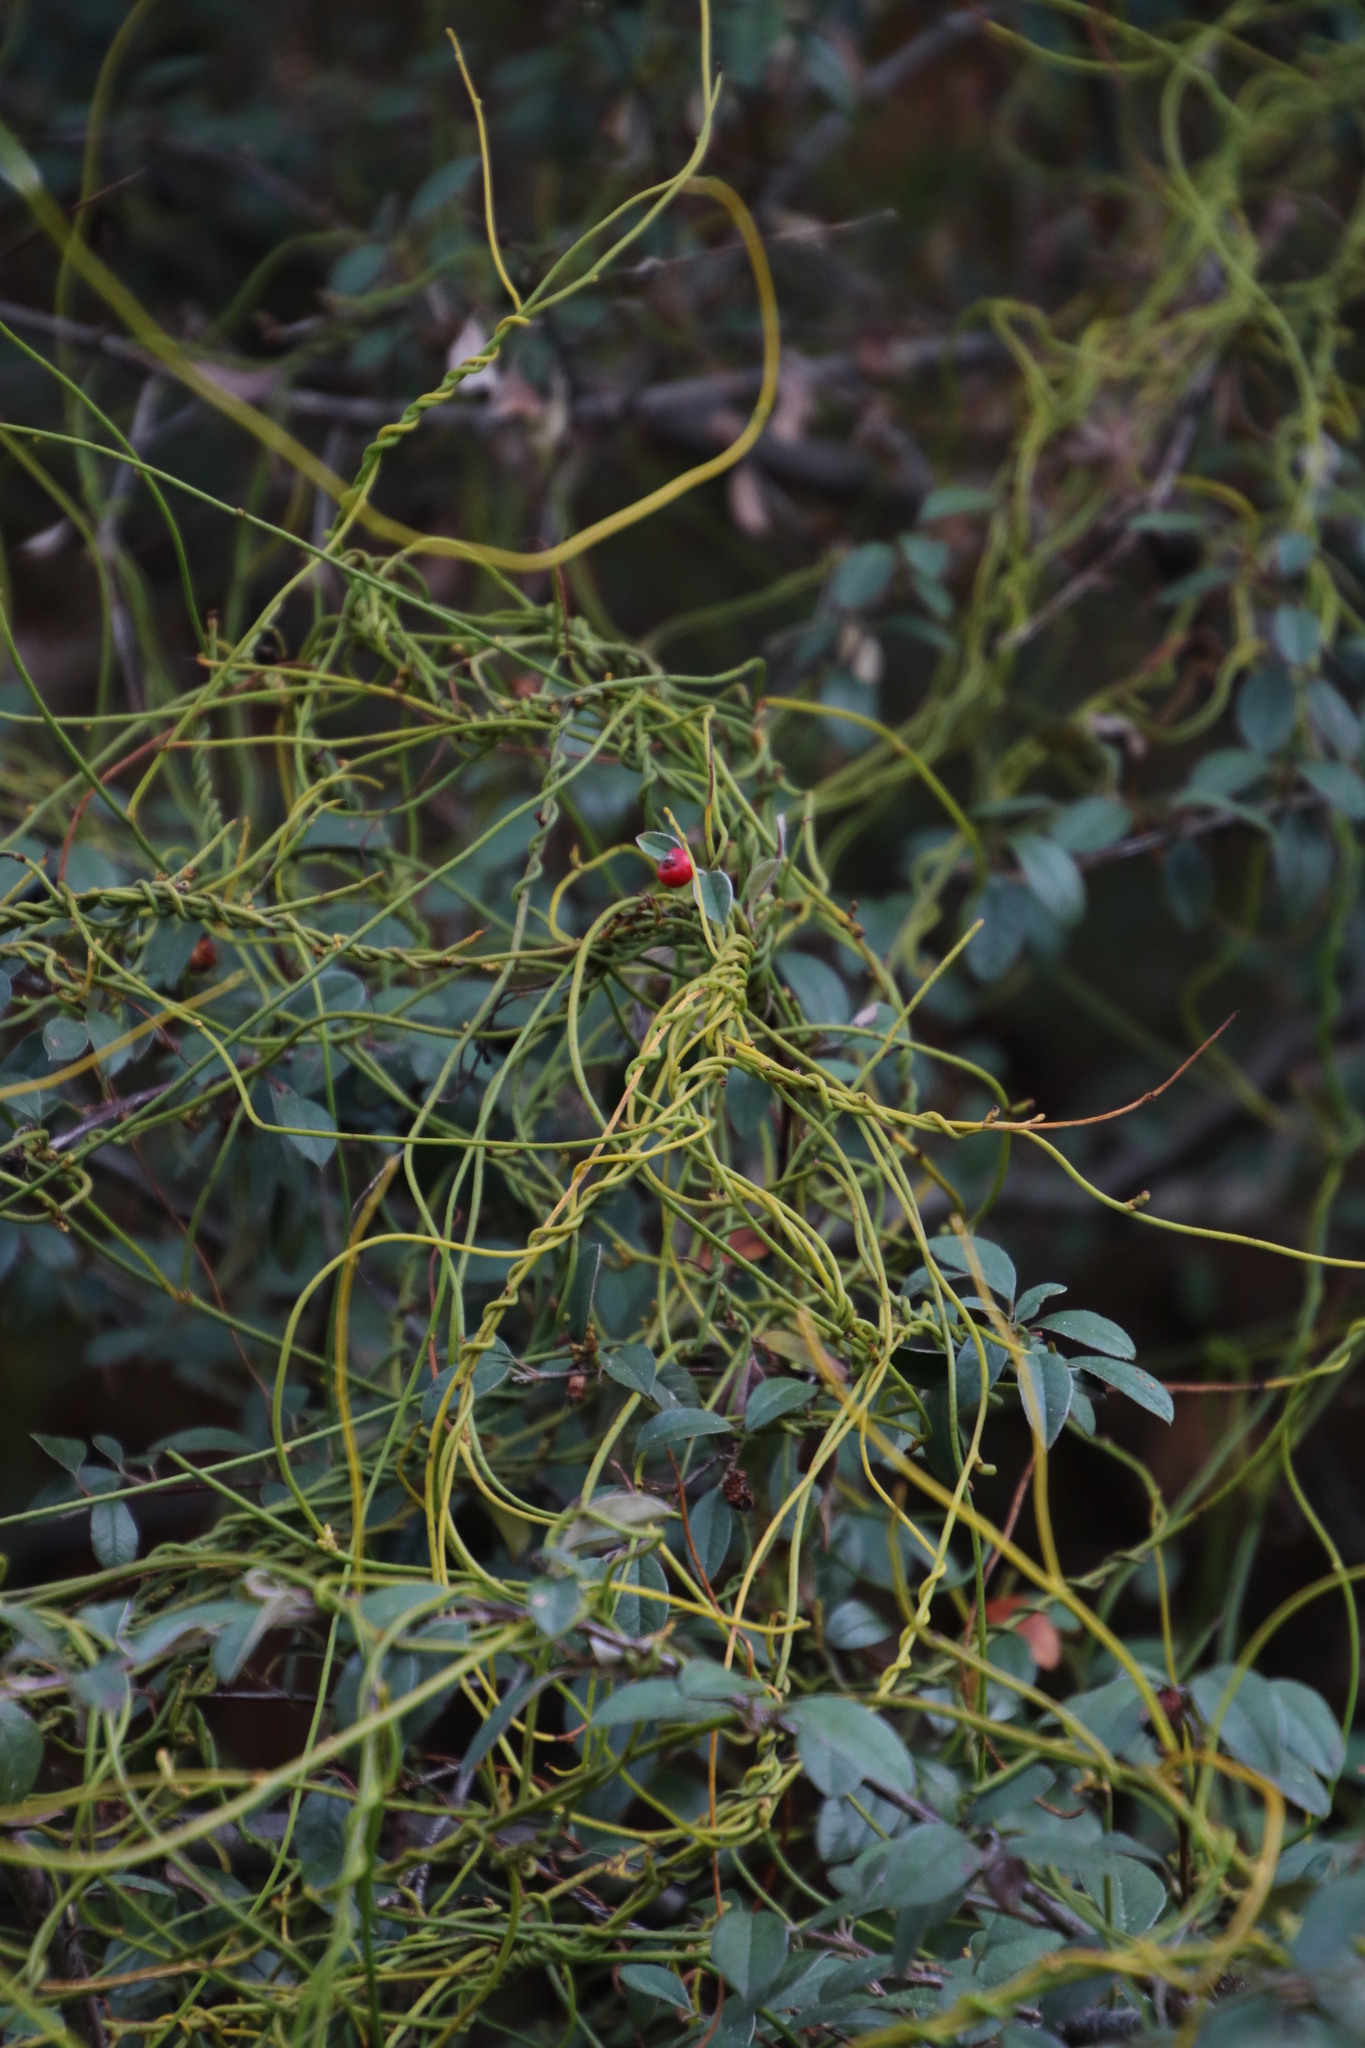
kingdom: Plantae
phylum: Tracheophyta
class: Magnoliopsida
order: Laurales
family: Lauraceae
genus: Cassytha
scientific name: Cassytha ciliolata
